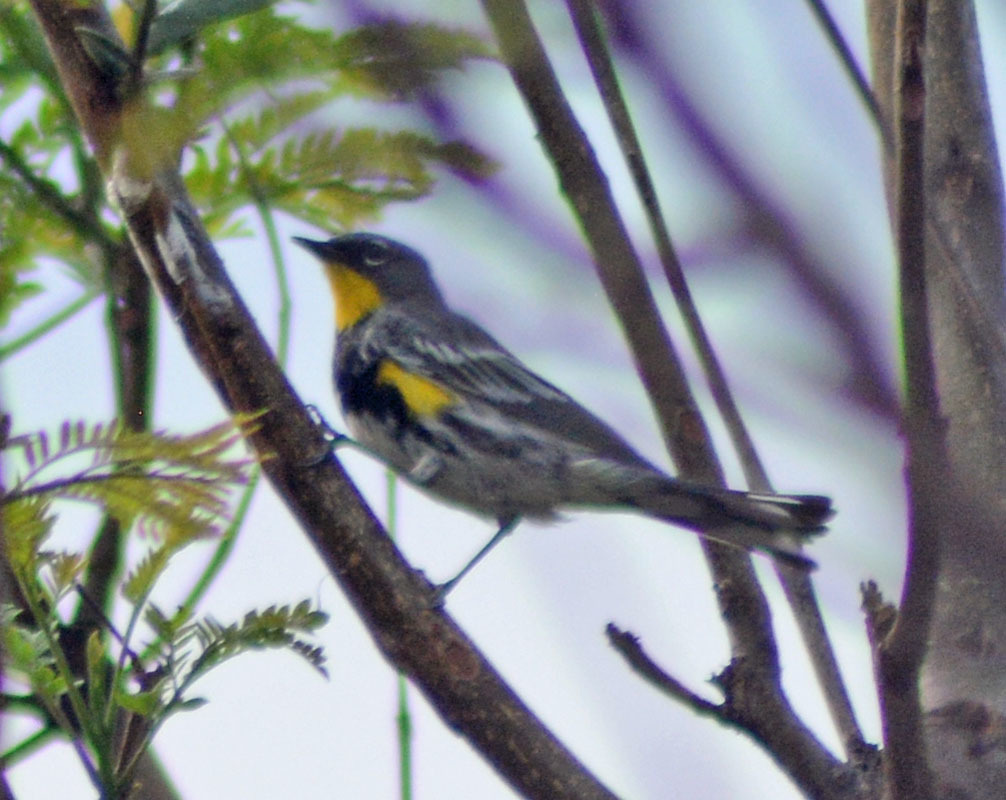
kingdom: Animalia
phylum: Chordata
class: Aves
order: Passeriformes
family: Parulidae
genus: Setophaga
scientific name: Setophaga auduboni
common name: Audubon's warbler
